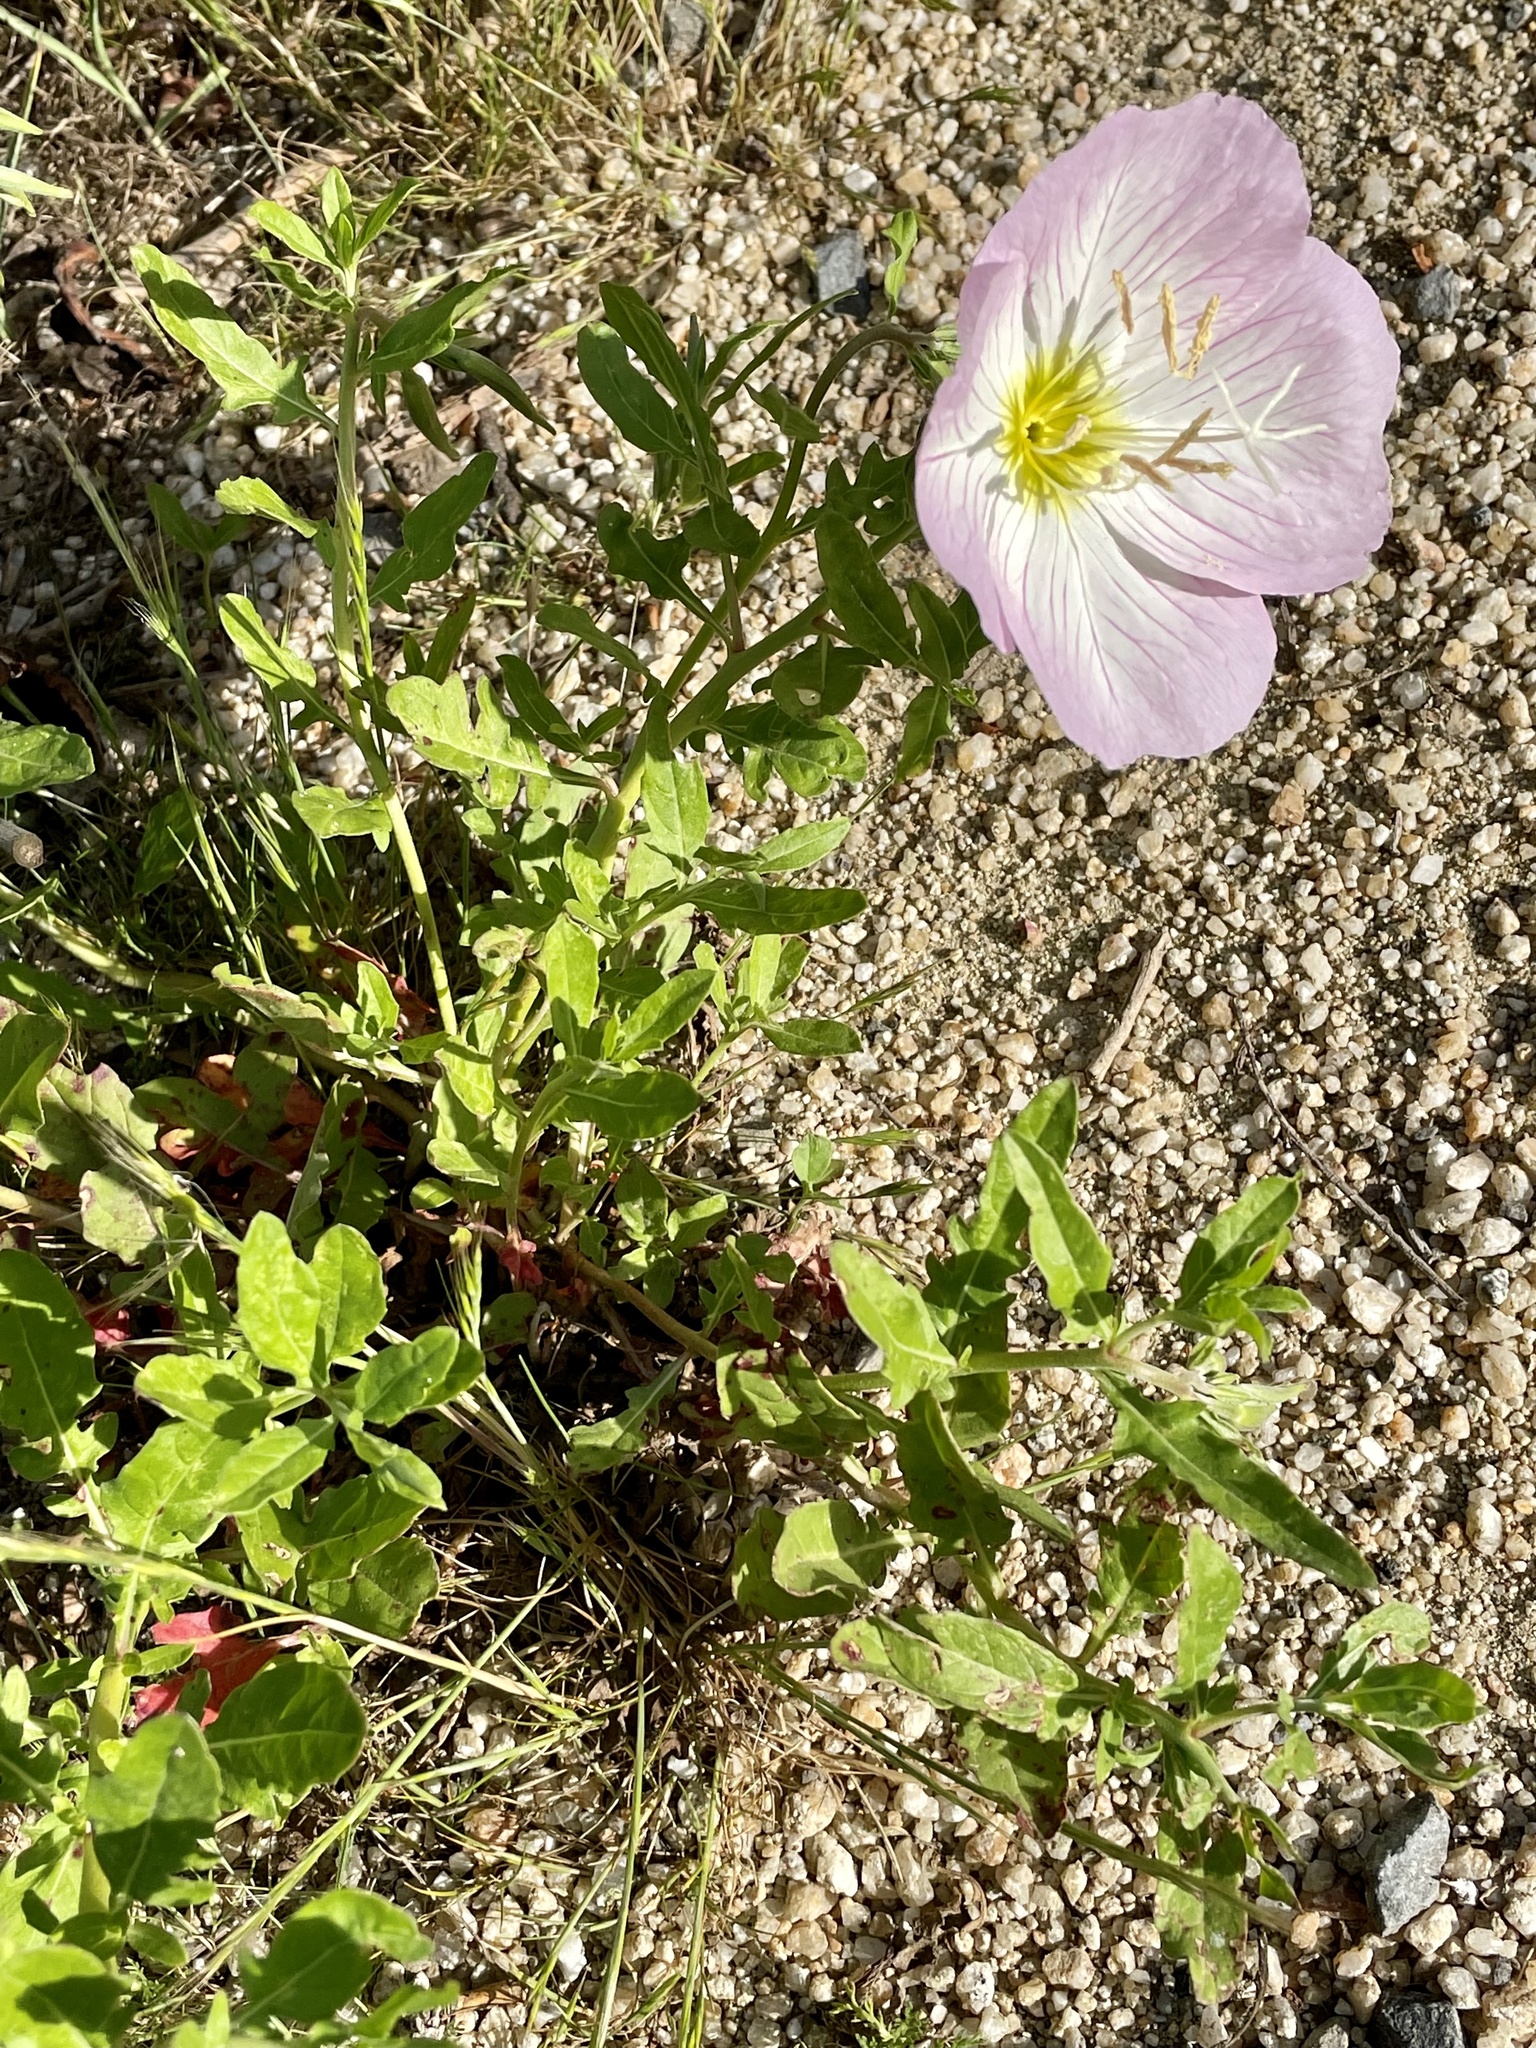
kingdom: Plantae
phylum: Tracheophyta
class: Magnoliopsida
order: Myrtales
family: Onagraceae
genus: Oenothera
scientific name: Oenothera speciosa
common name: White evening-primrose
